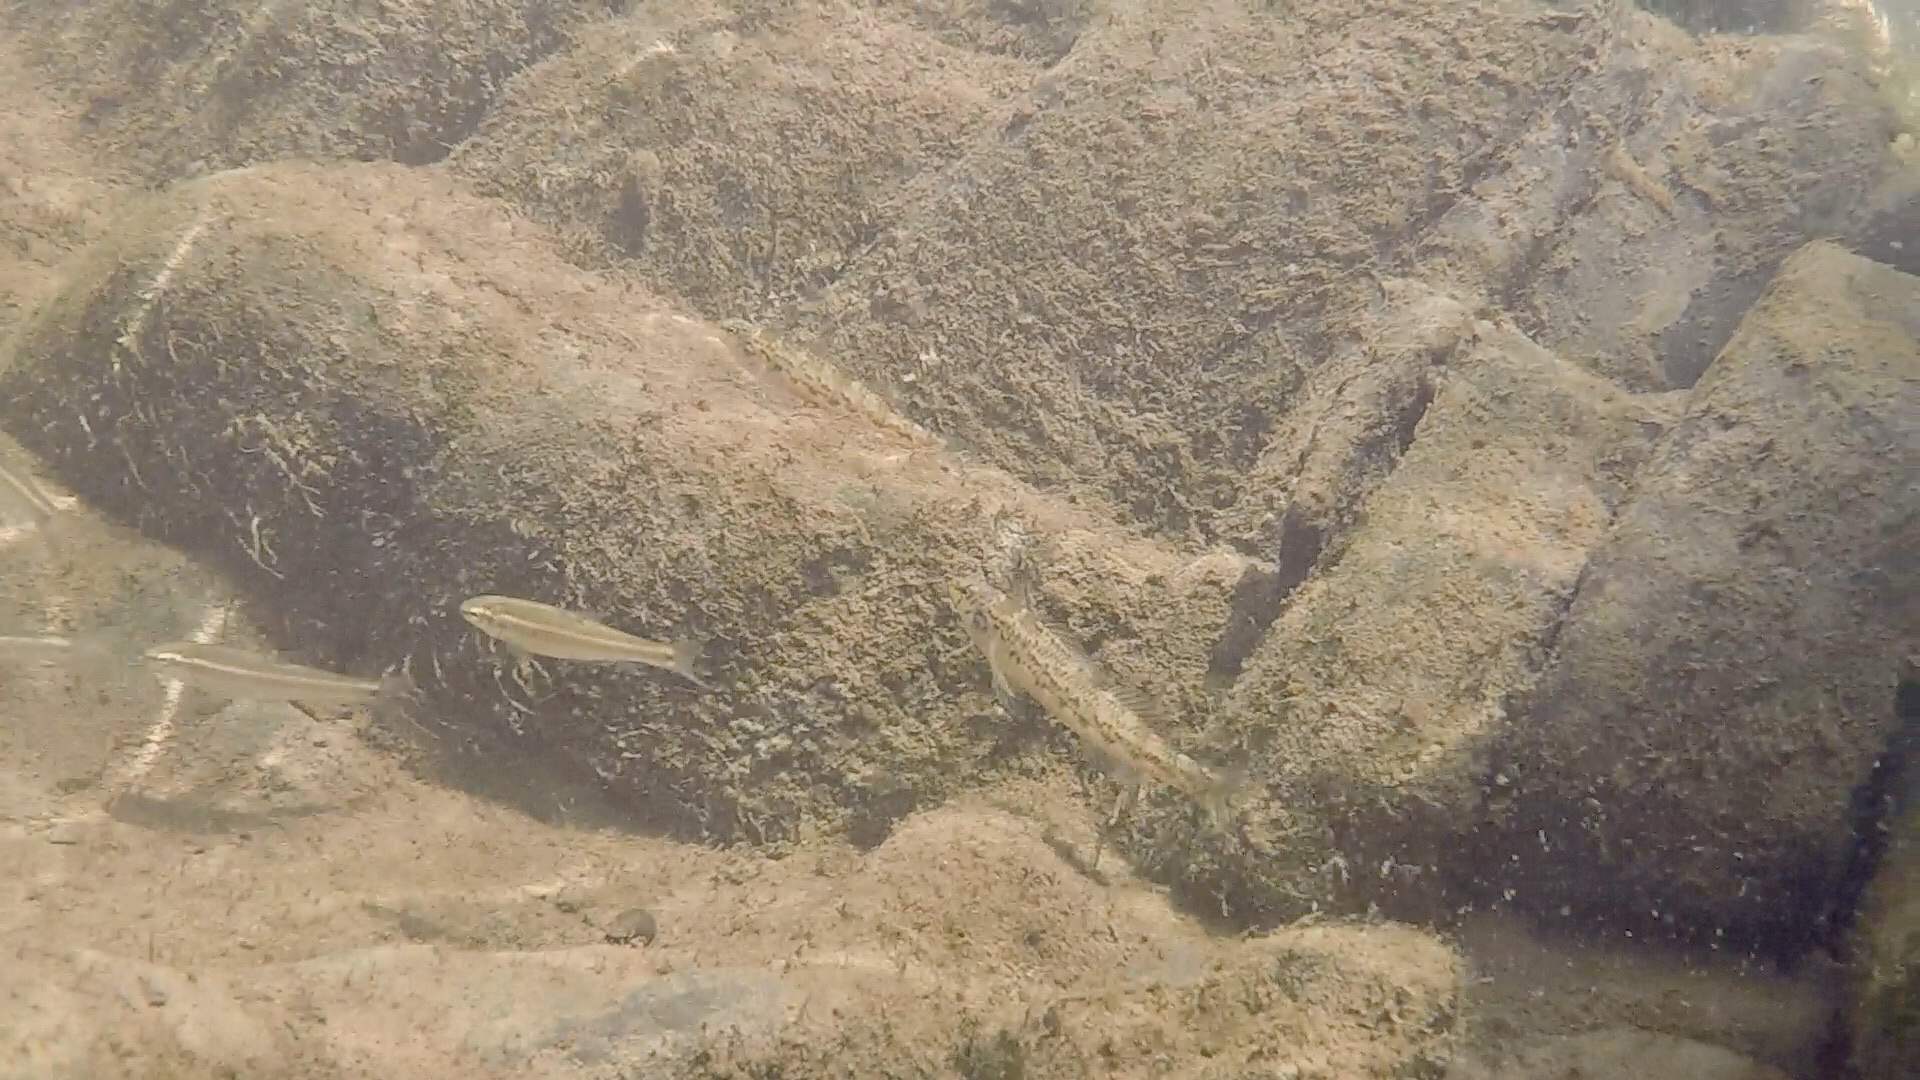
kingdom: Animalia
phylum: Chordata
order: Perciformes
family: Percidae
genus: Etheostoma
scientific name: Etheostoma chermocki
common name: Vermilion darter
